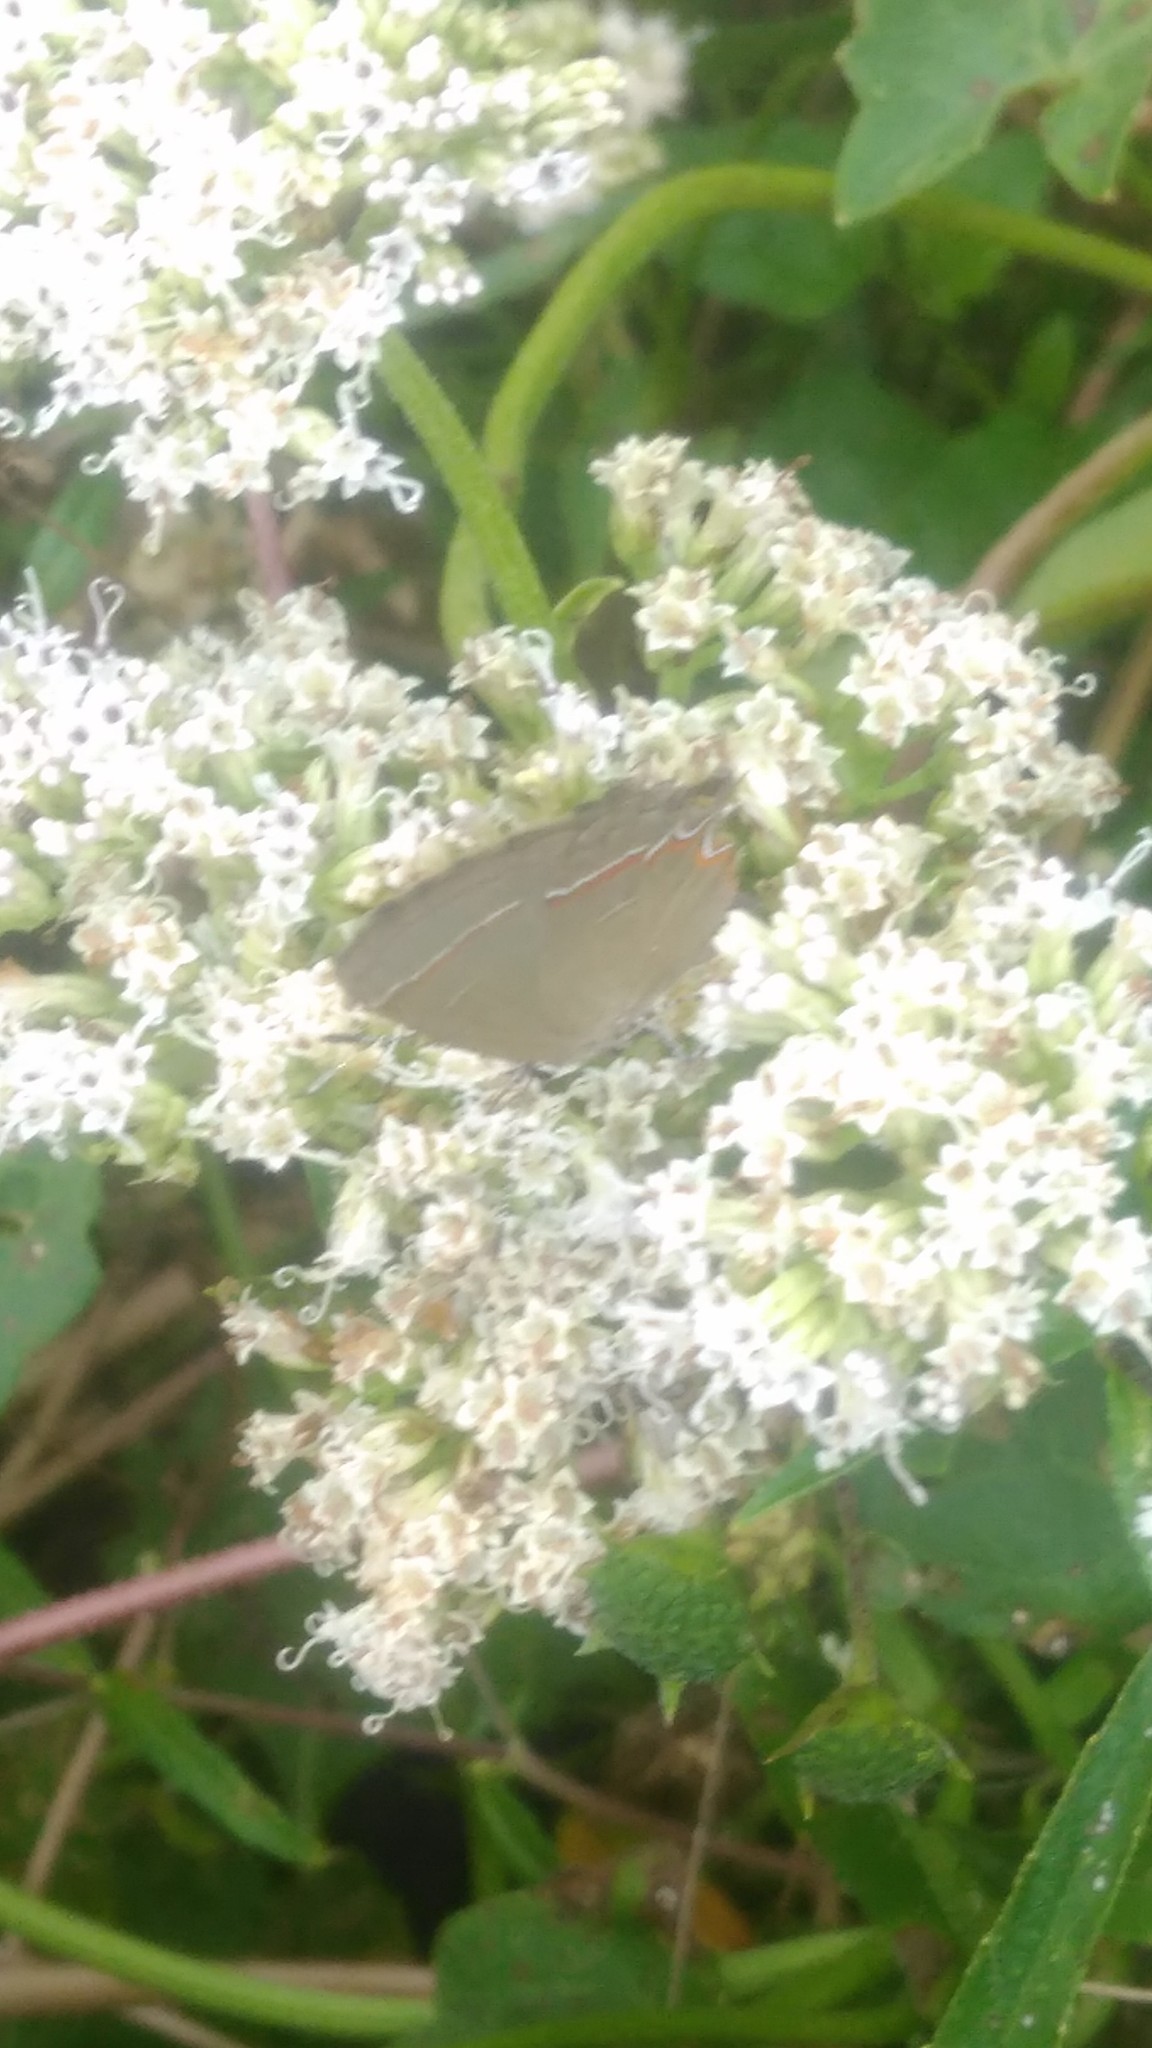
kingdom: Animalia
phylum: Arthropoda
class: Insecta
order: Lepidoptera
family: Lycaenidae
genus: Calycopis
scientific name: Calycopis caulonia
